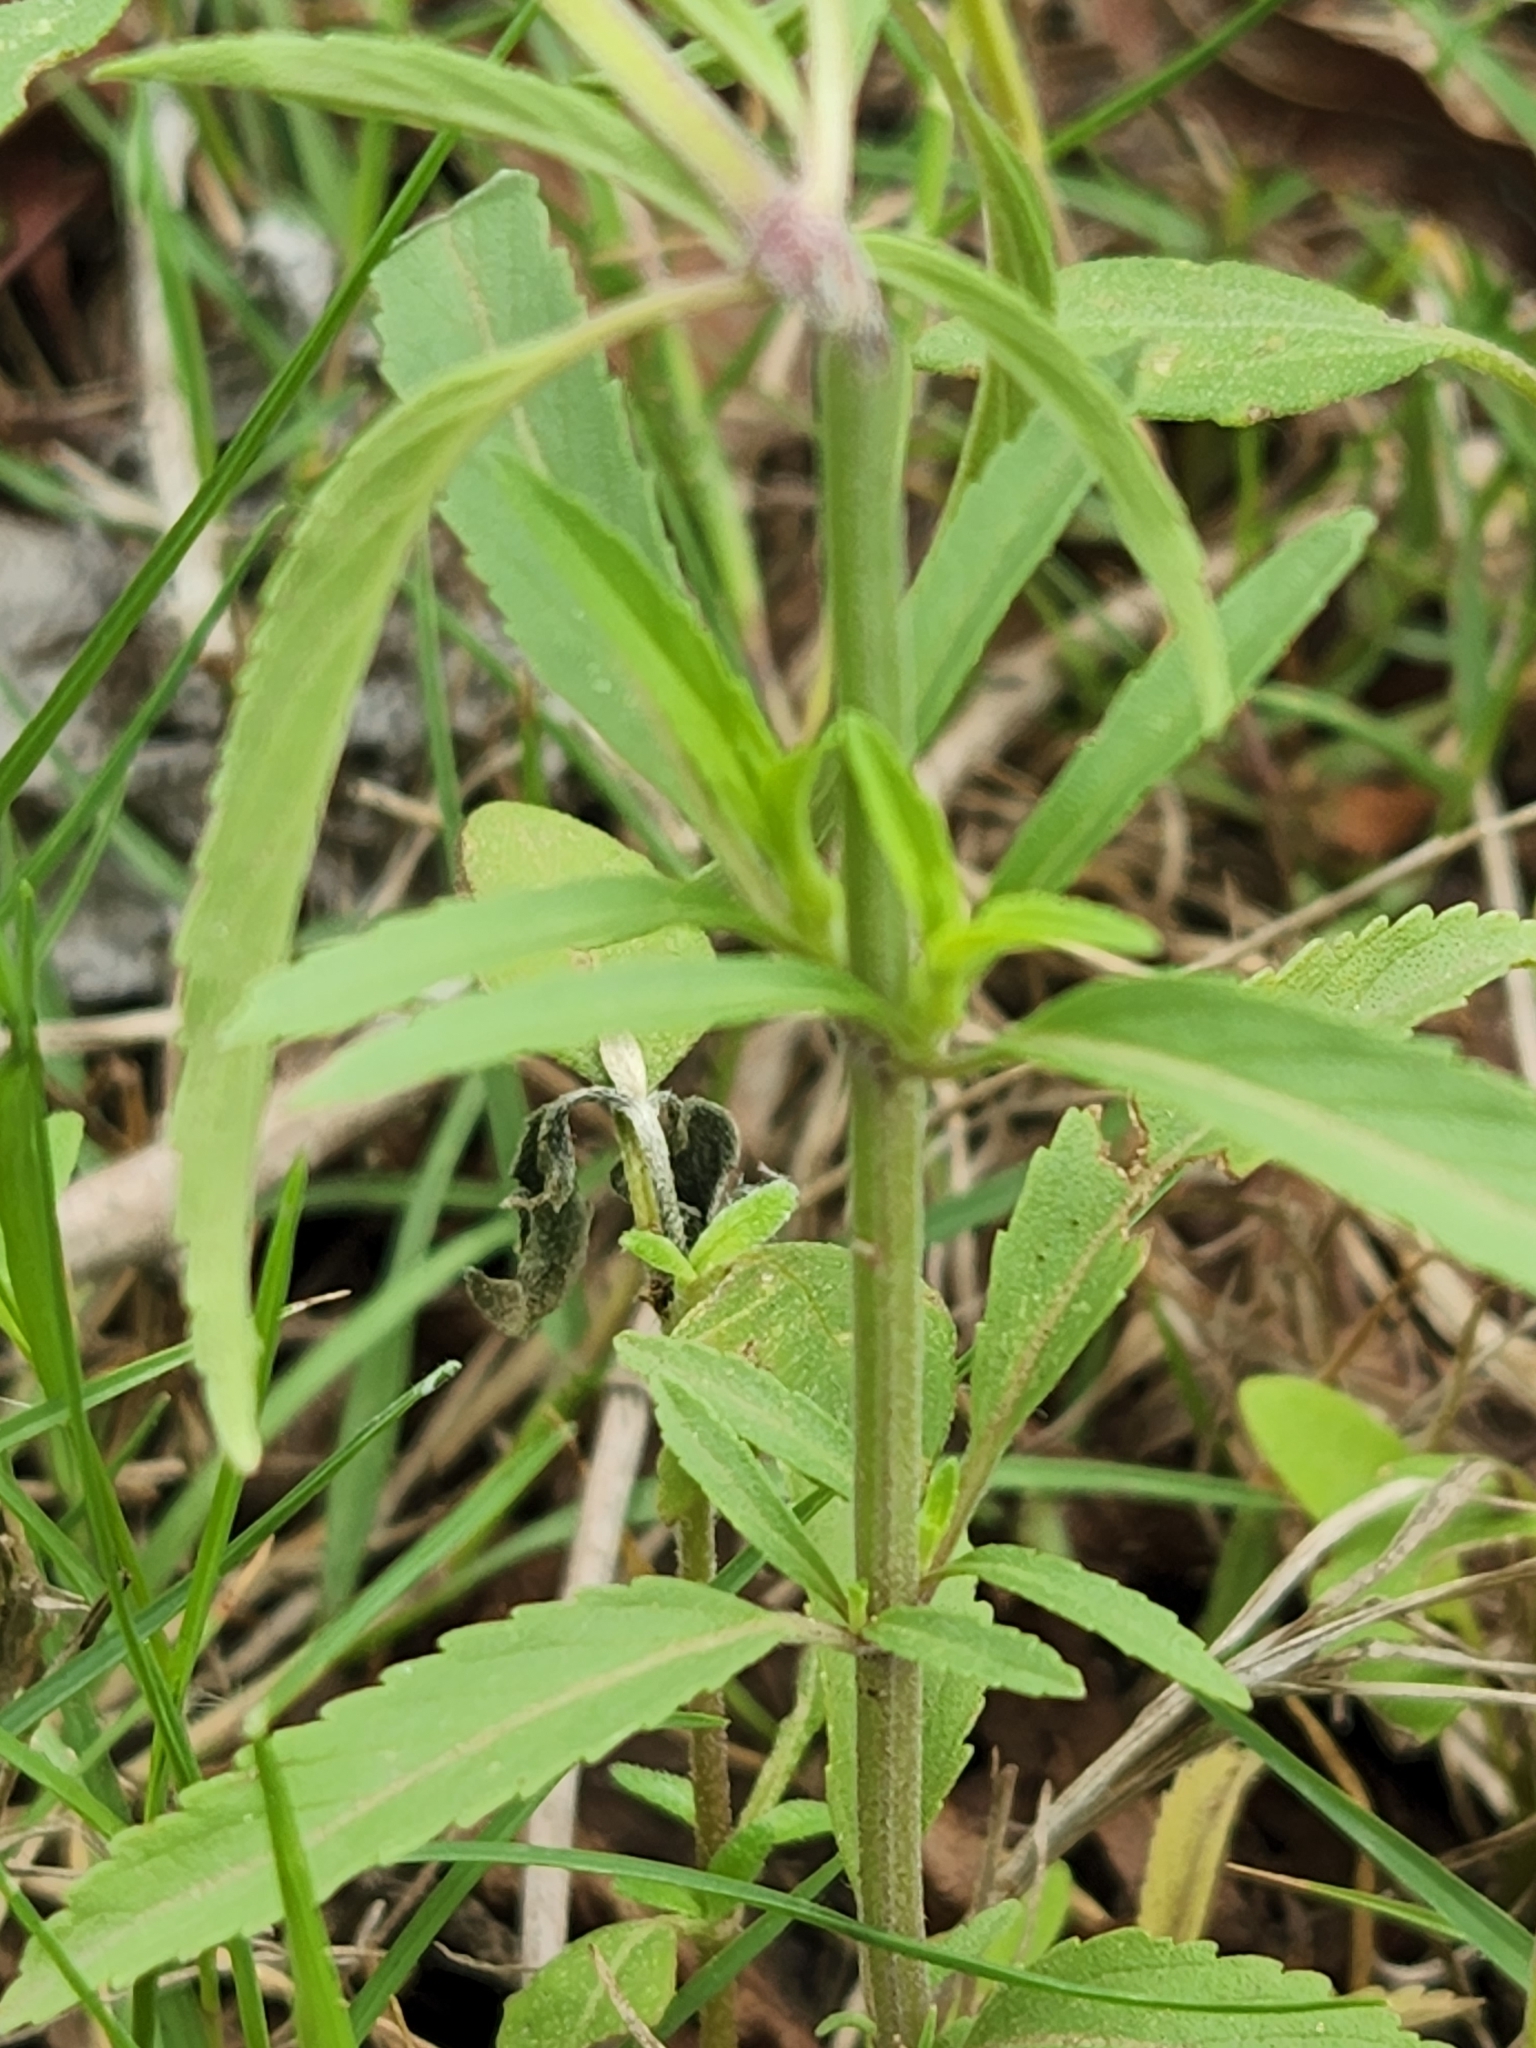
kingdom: Plantae
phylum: Tracheophyta
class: Magnoliopsida
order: Lamiales
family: Lamiaceae
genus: Monarda
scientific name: Monarda punctata
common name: Dotted monarda
